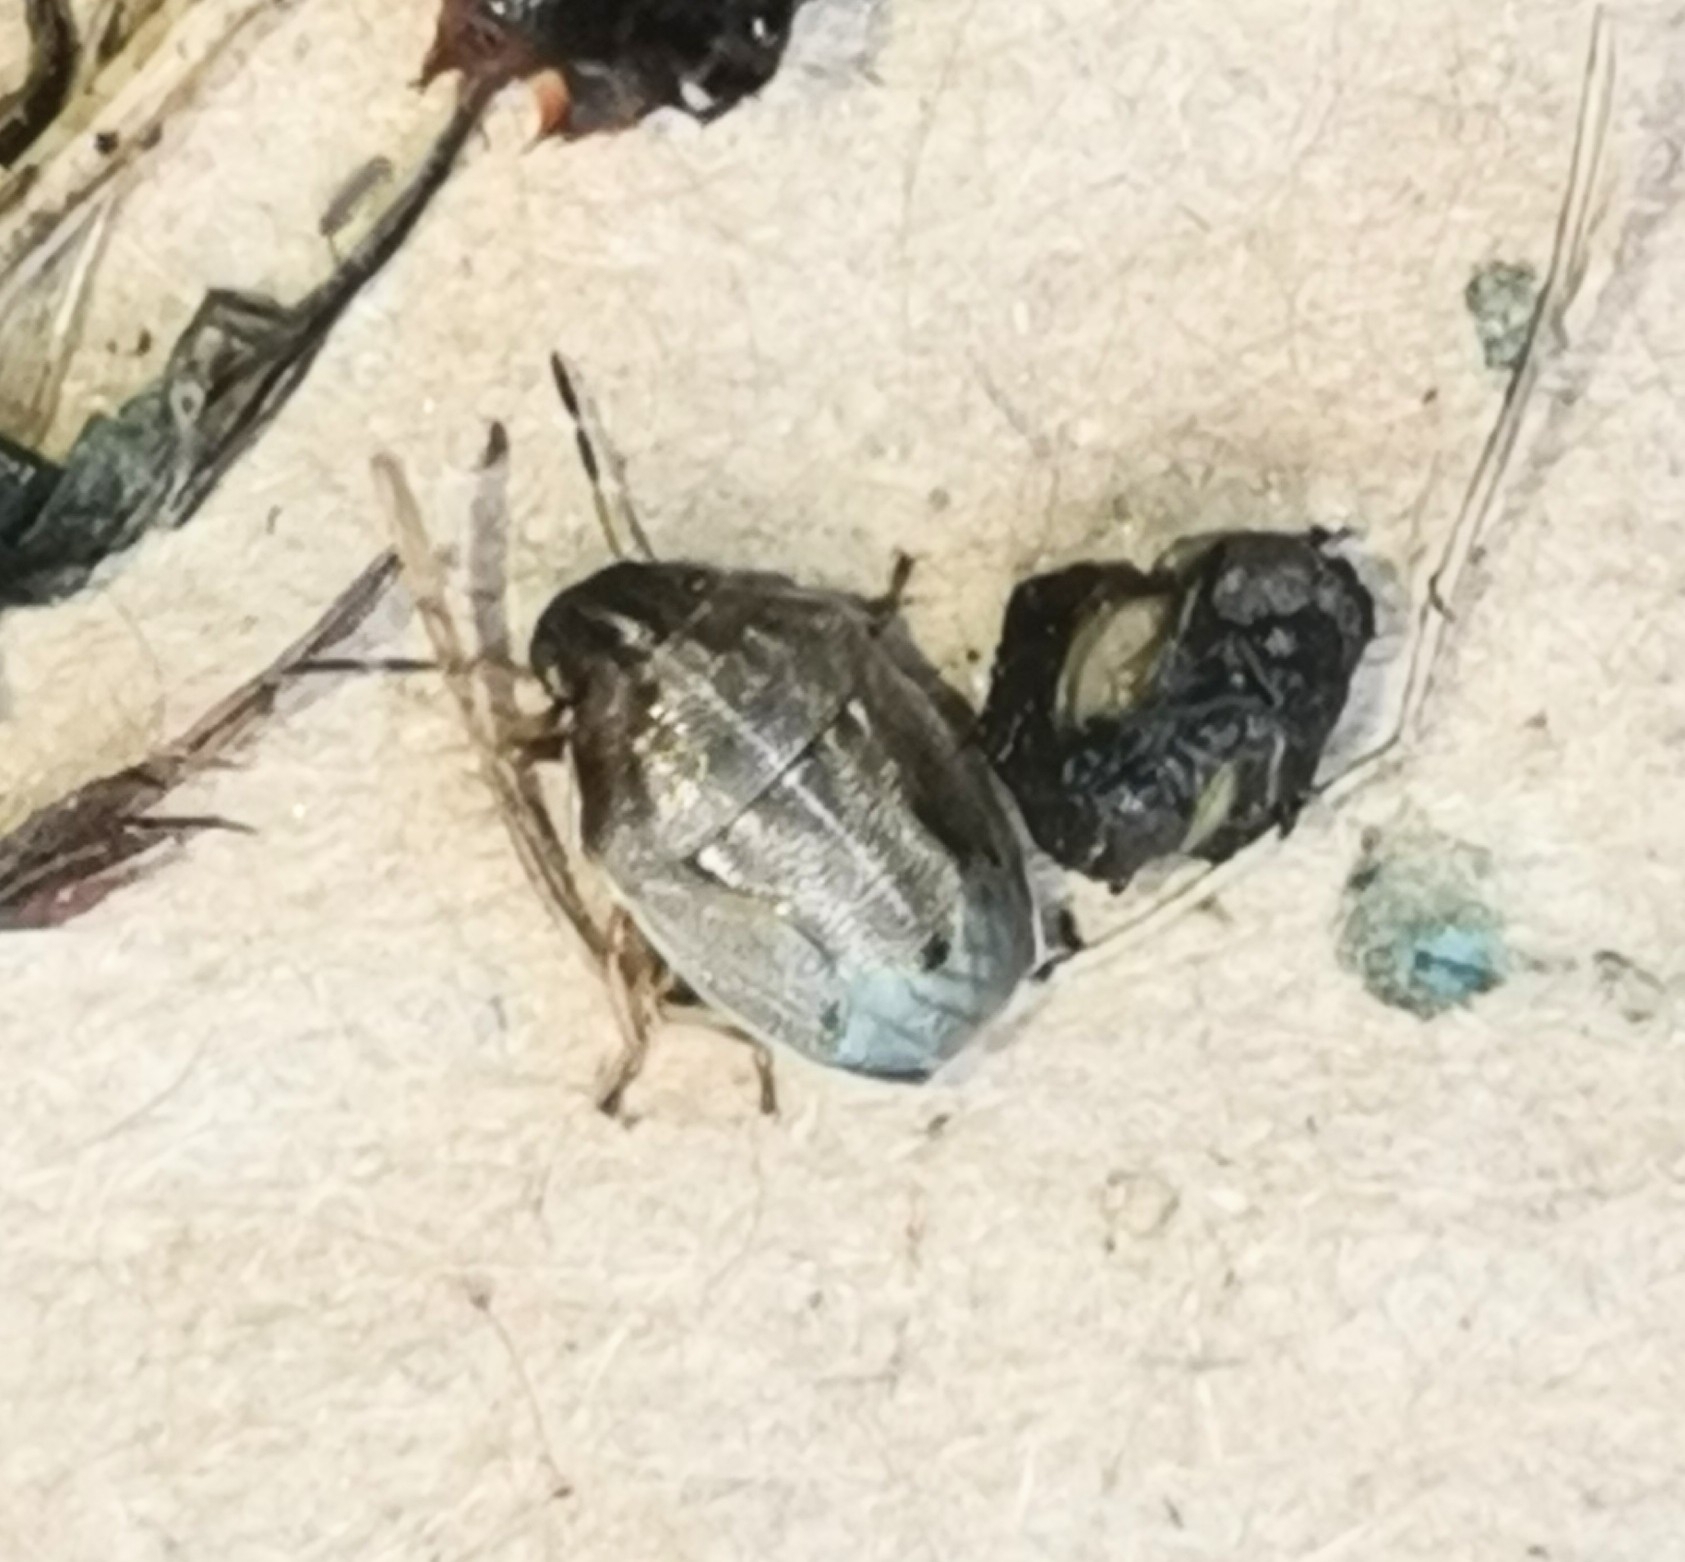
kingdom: Animalia
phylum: Arthropoda
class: Insecta
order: Hemiptera
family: Pentatomidae
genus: Neottiglossa
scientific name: Neottiglossa pusilla
